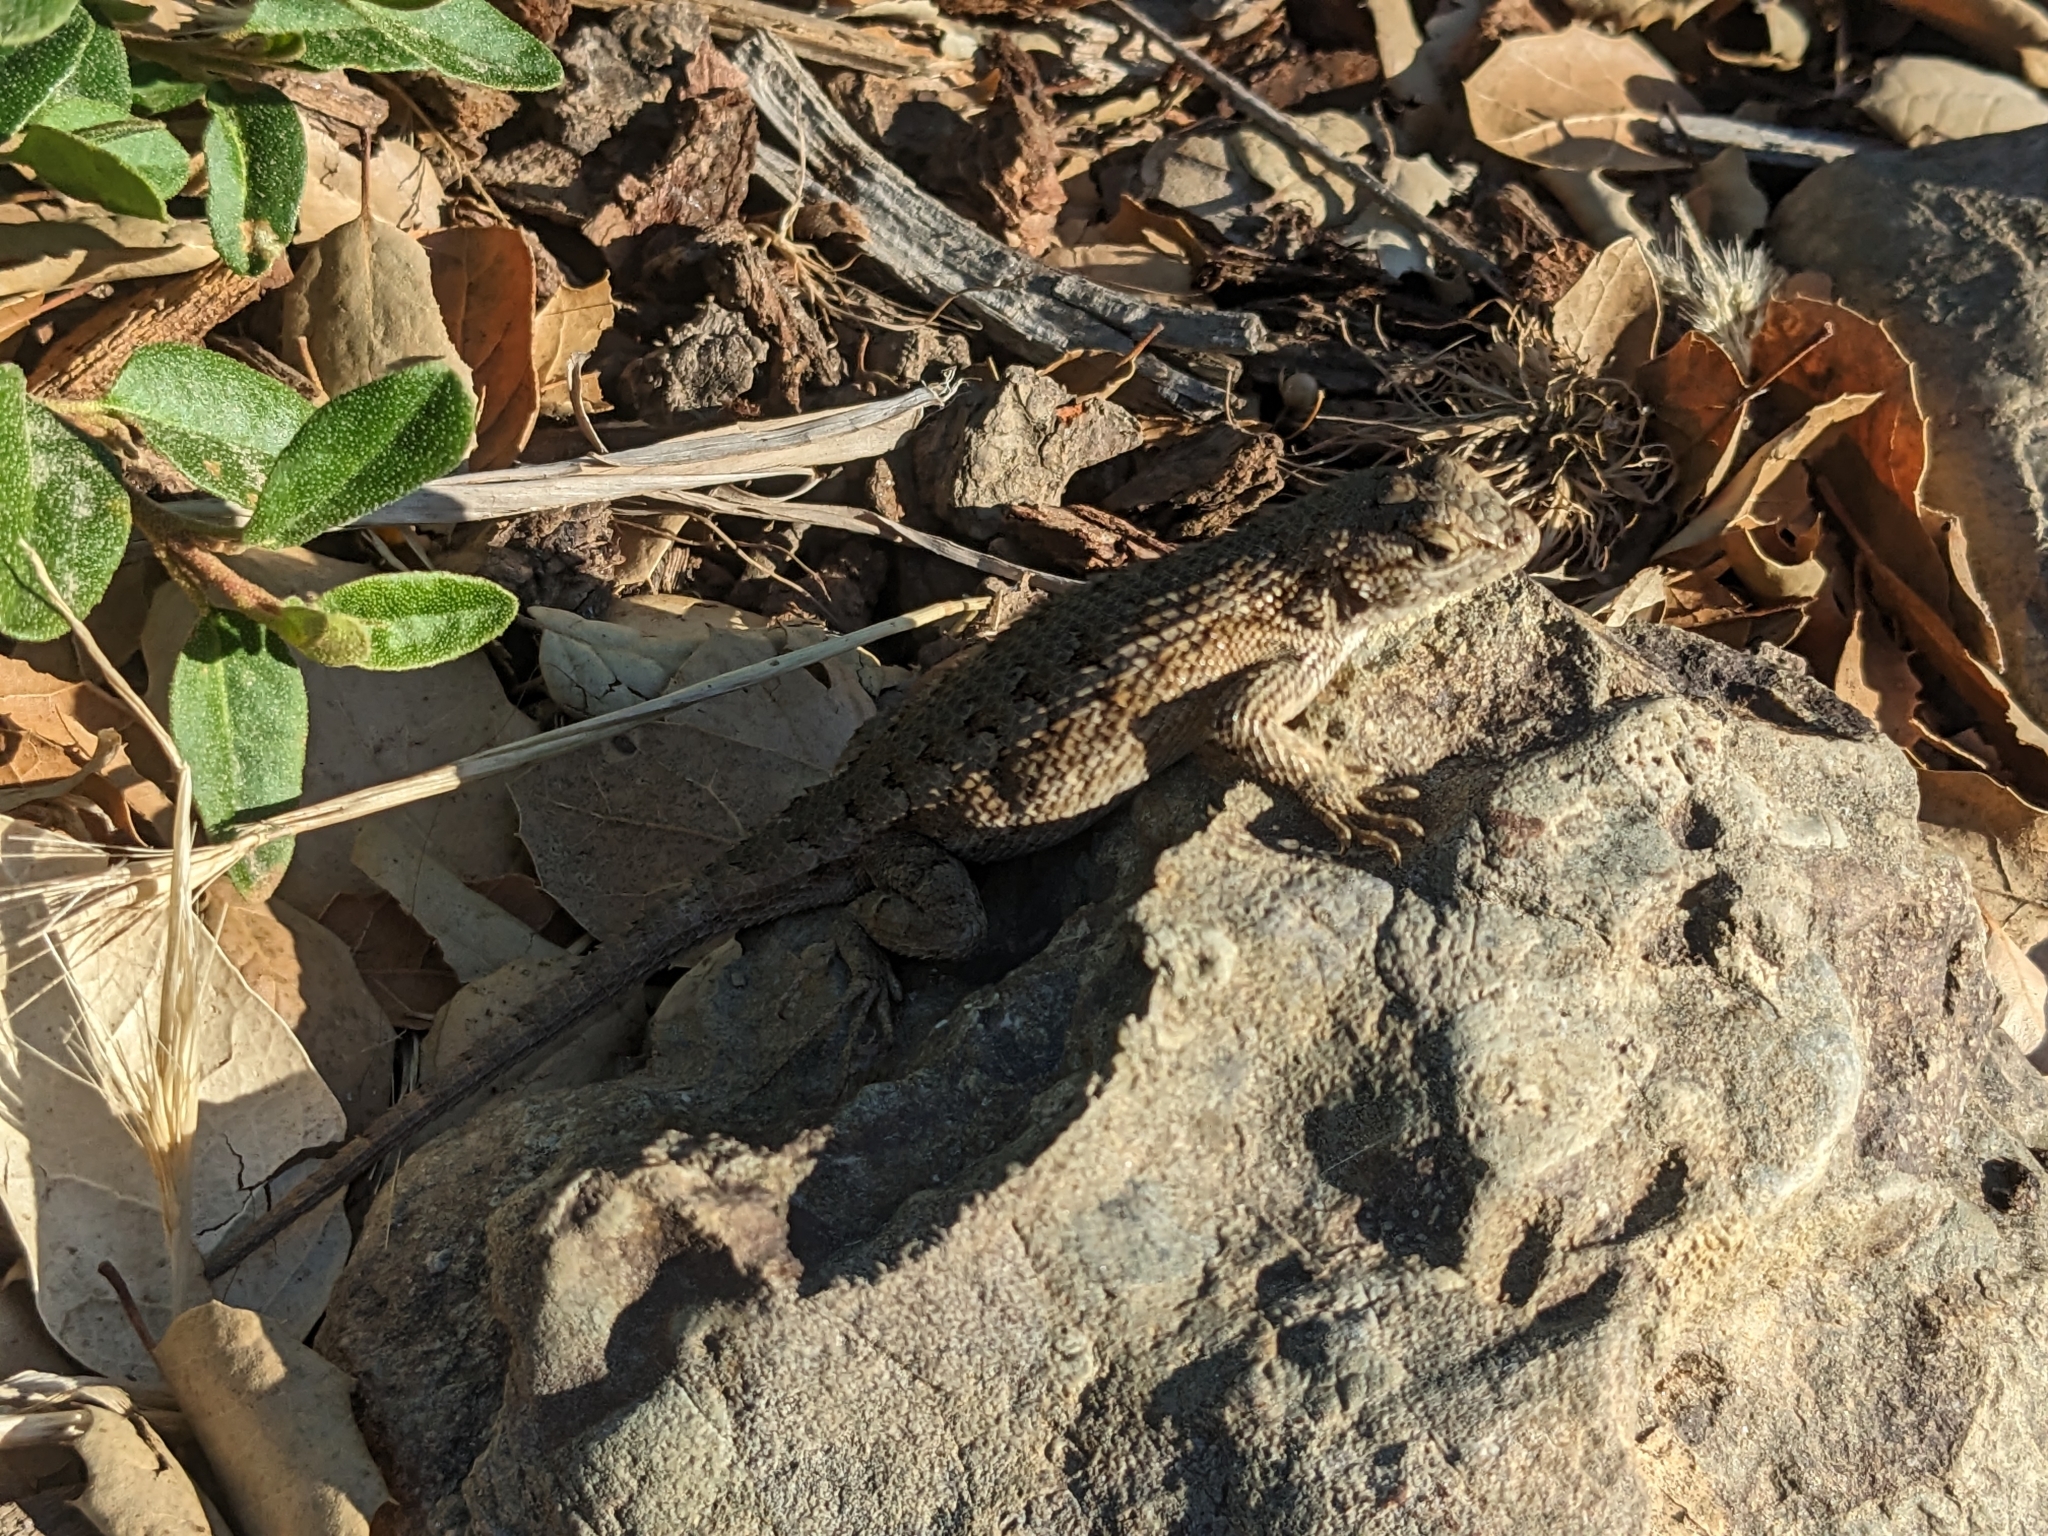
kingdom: Animalia
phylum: Chordata
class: Squamata
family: Phrynosomatidae
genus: Sceloporus
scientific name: Sceloporus occidentalis
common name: Western fence lizard
